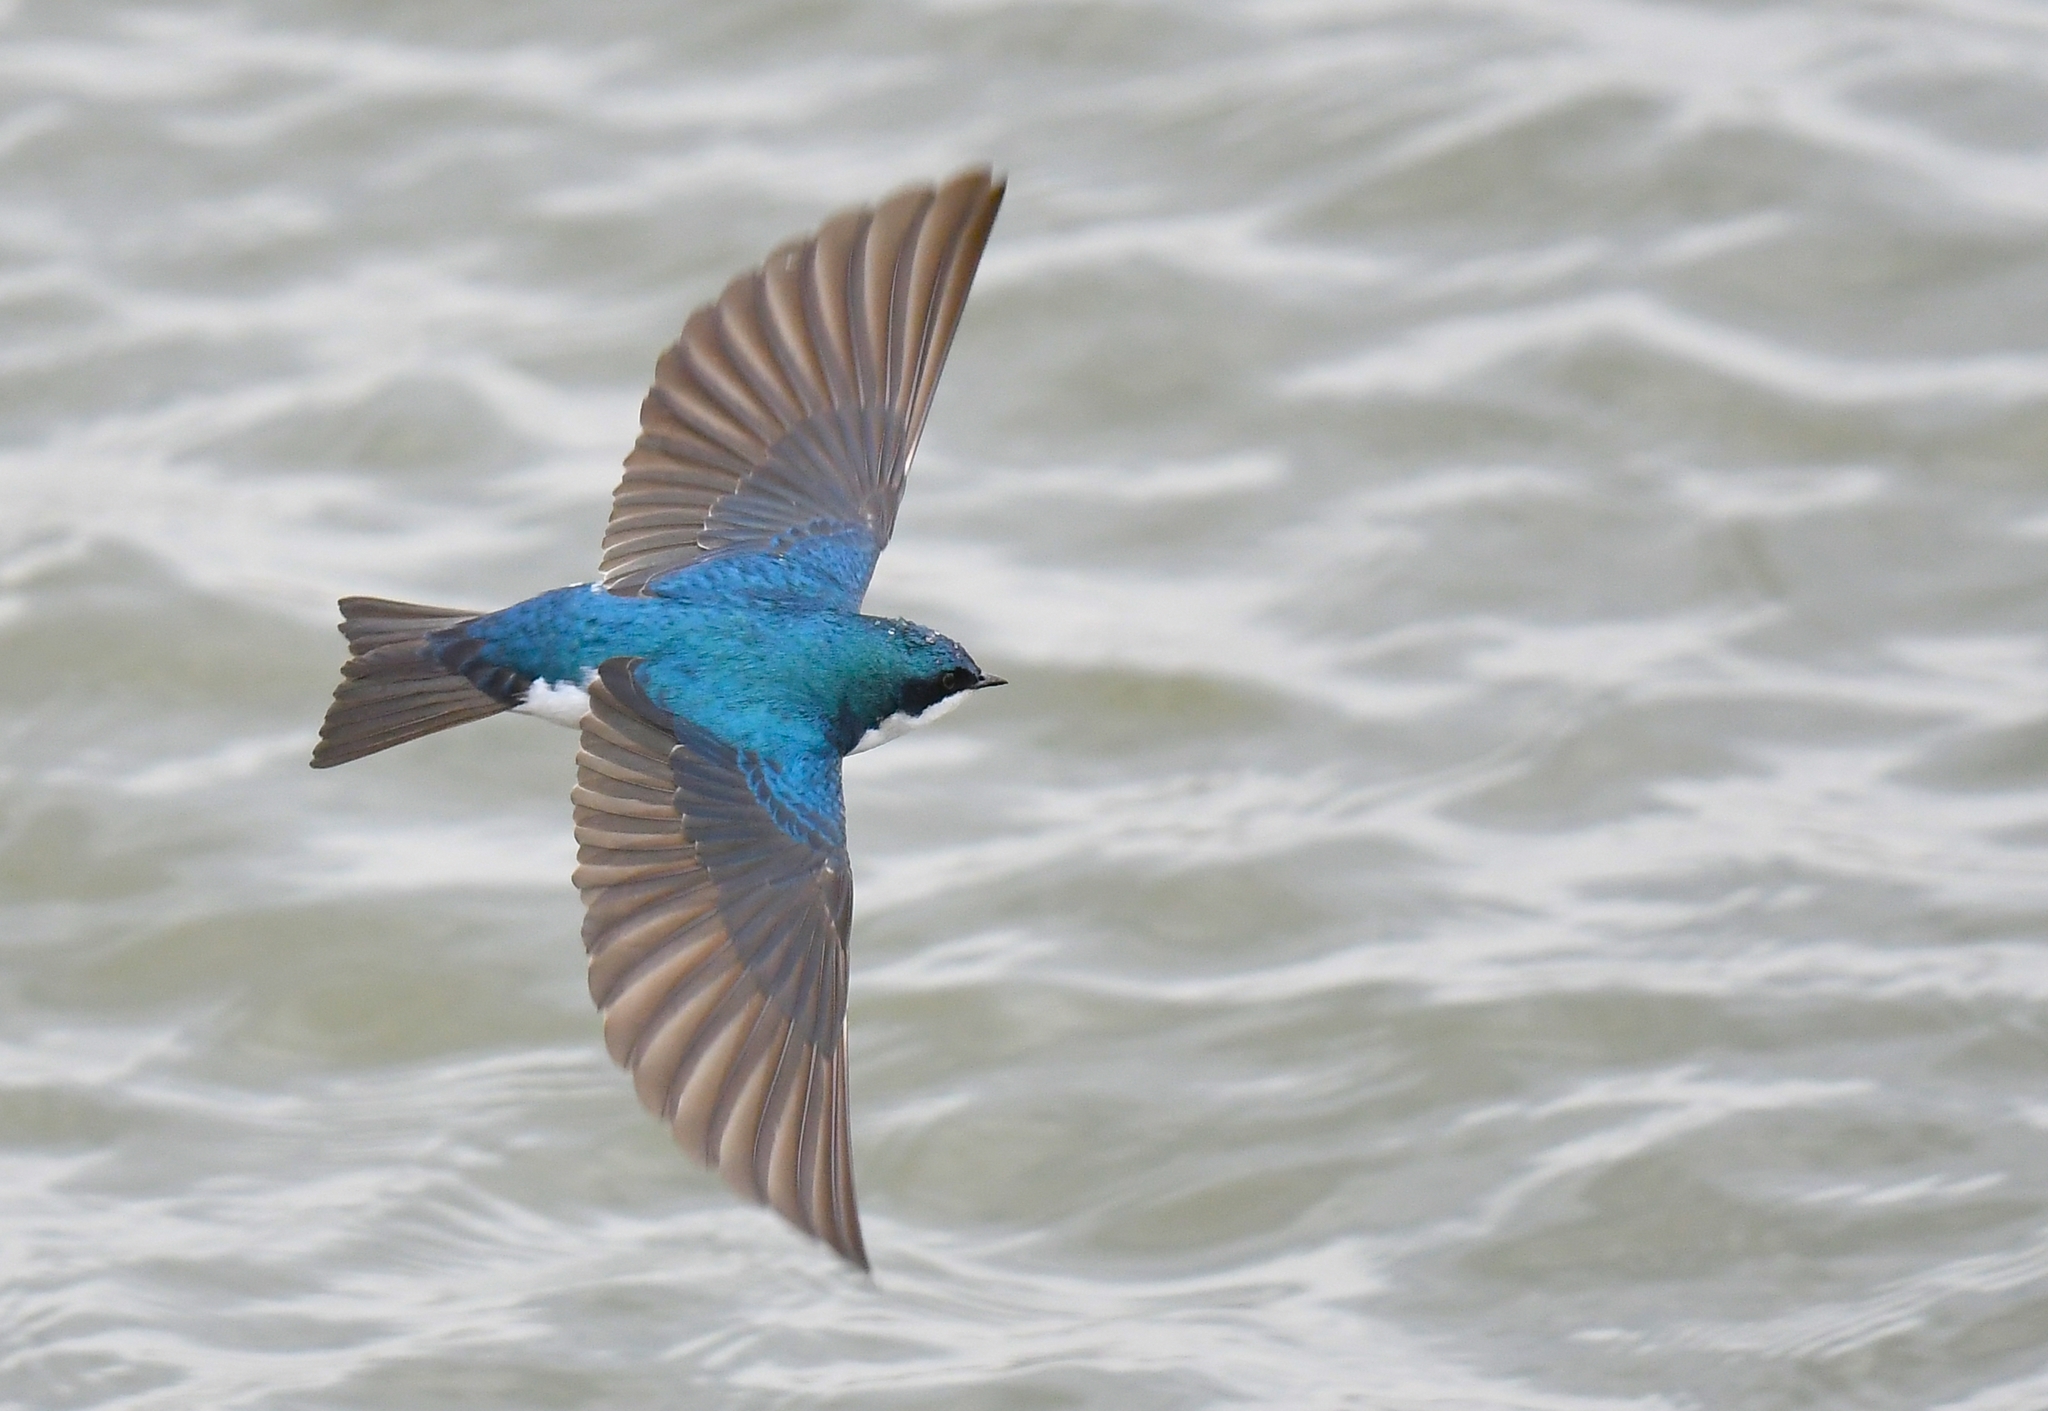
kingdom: Animalia
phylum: Chordata
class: Aves
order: Passeriformes
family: Hirundinidae
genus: Tachycineta
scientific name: Tachycineta bicolor
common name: Tree swallow
